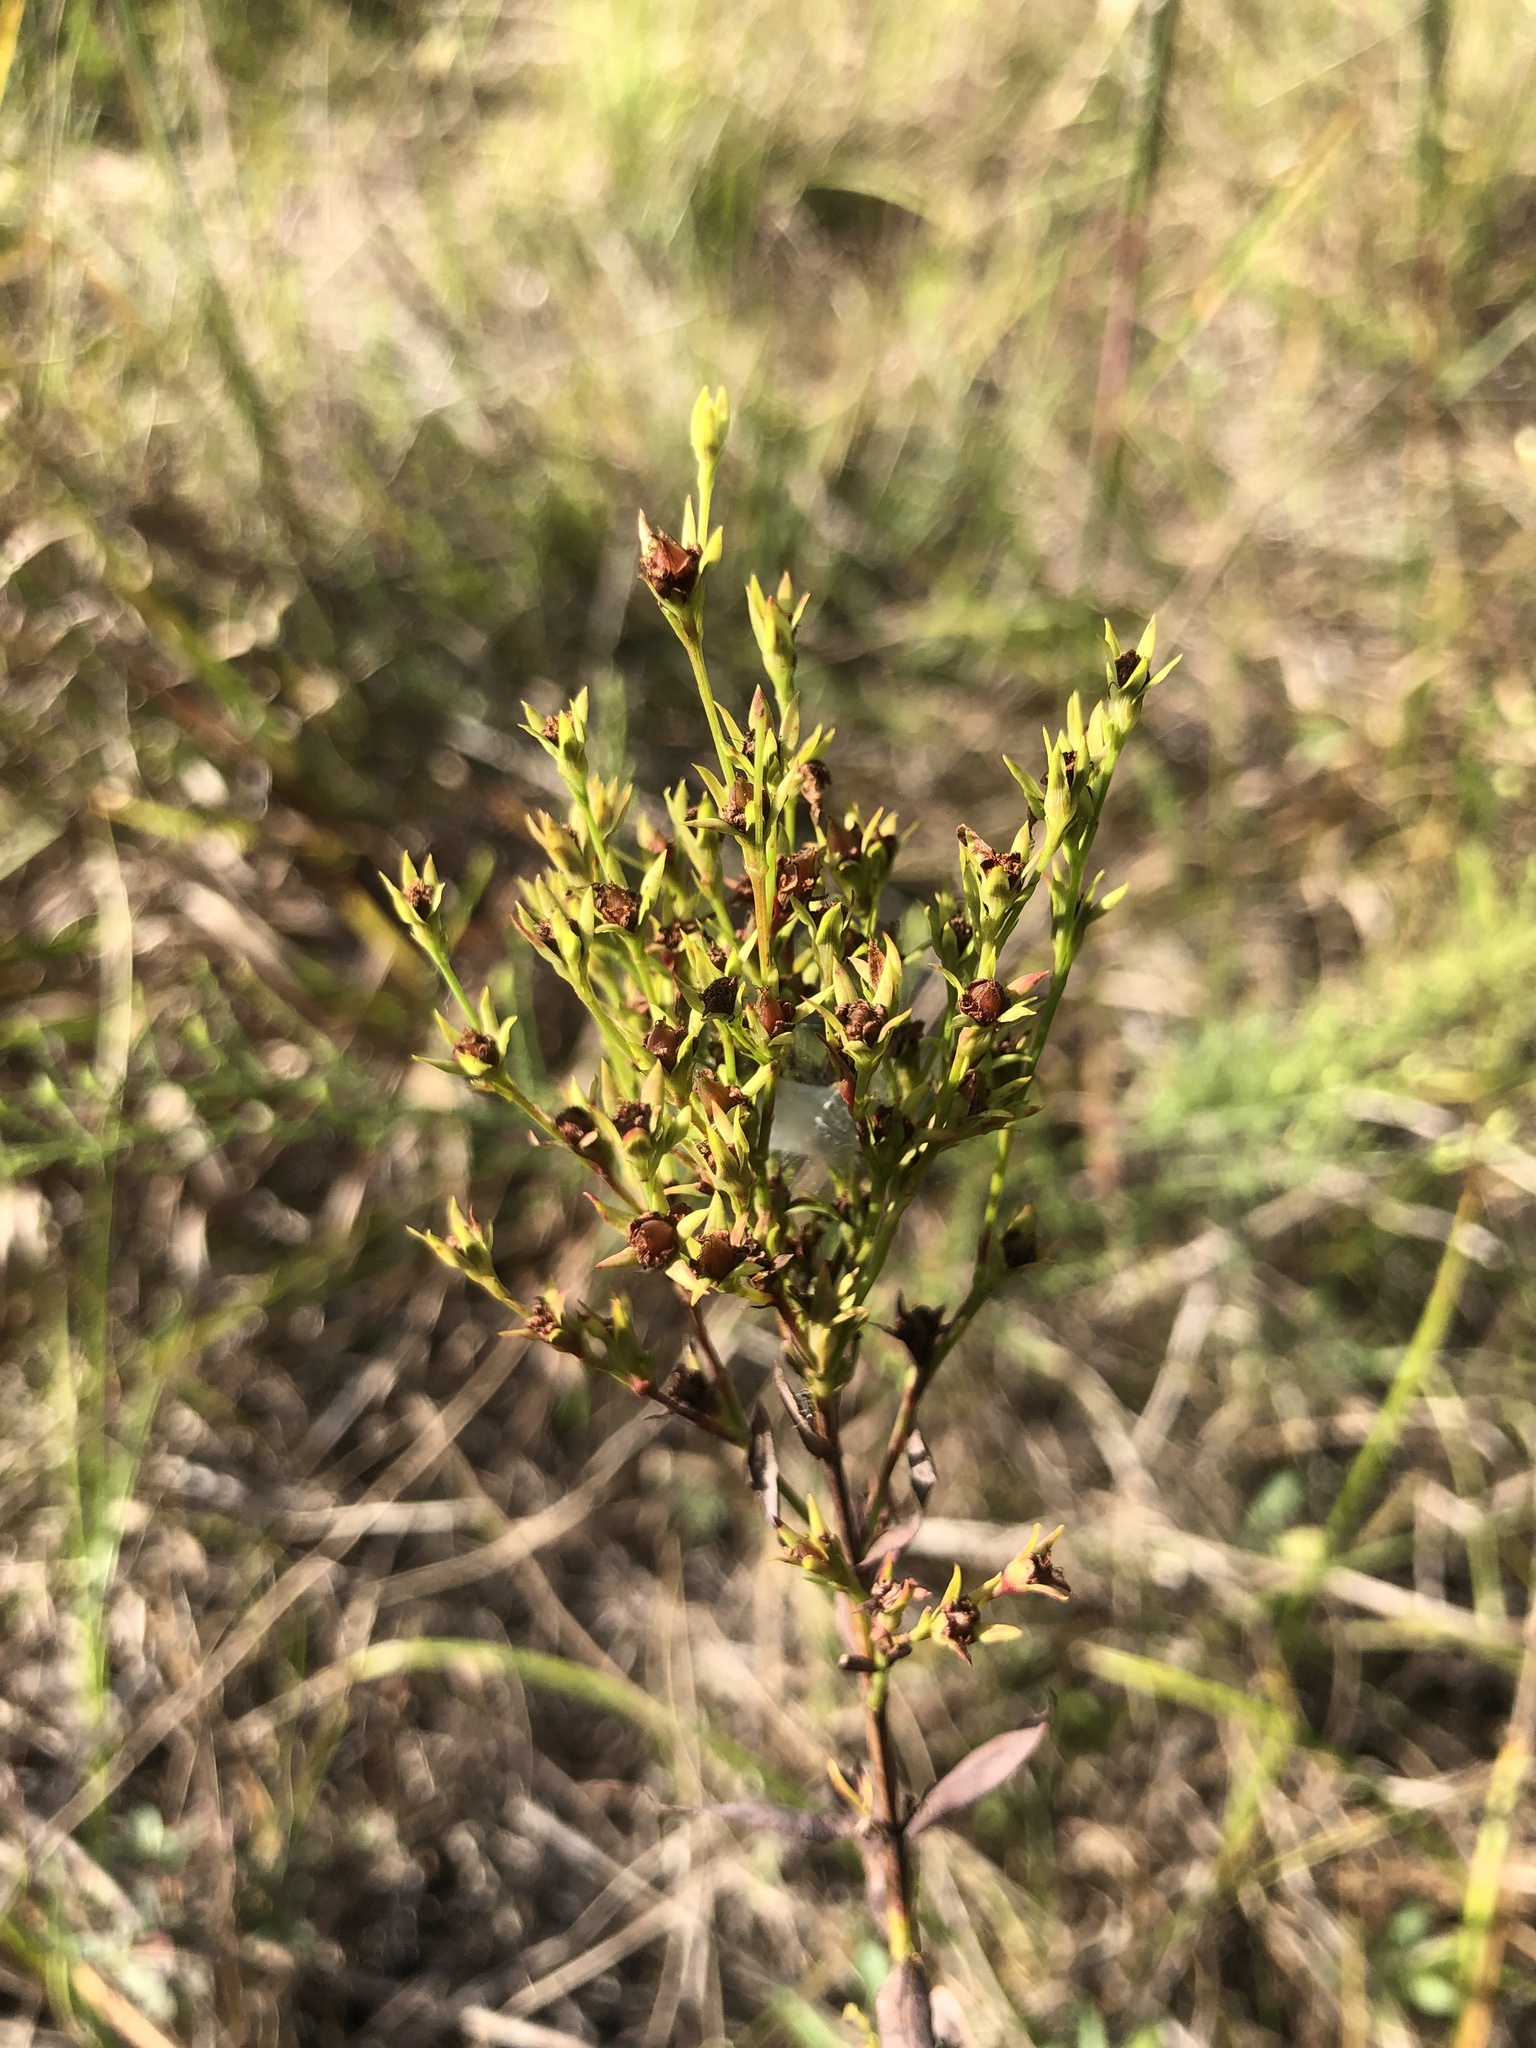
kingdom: Plantae
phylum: Tracheophyta
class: Magnoliopsida
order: Malpighiales
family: Hypericaceae
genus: Hypericum
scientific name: Hypericum virgatum
